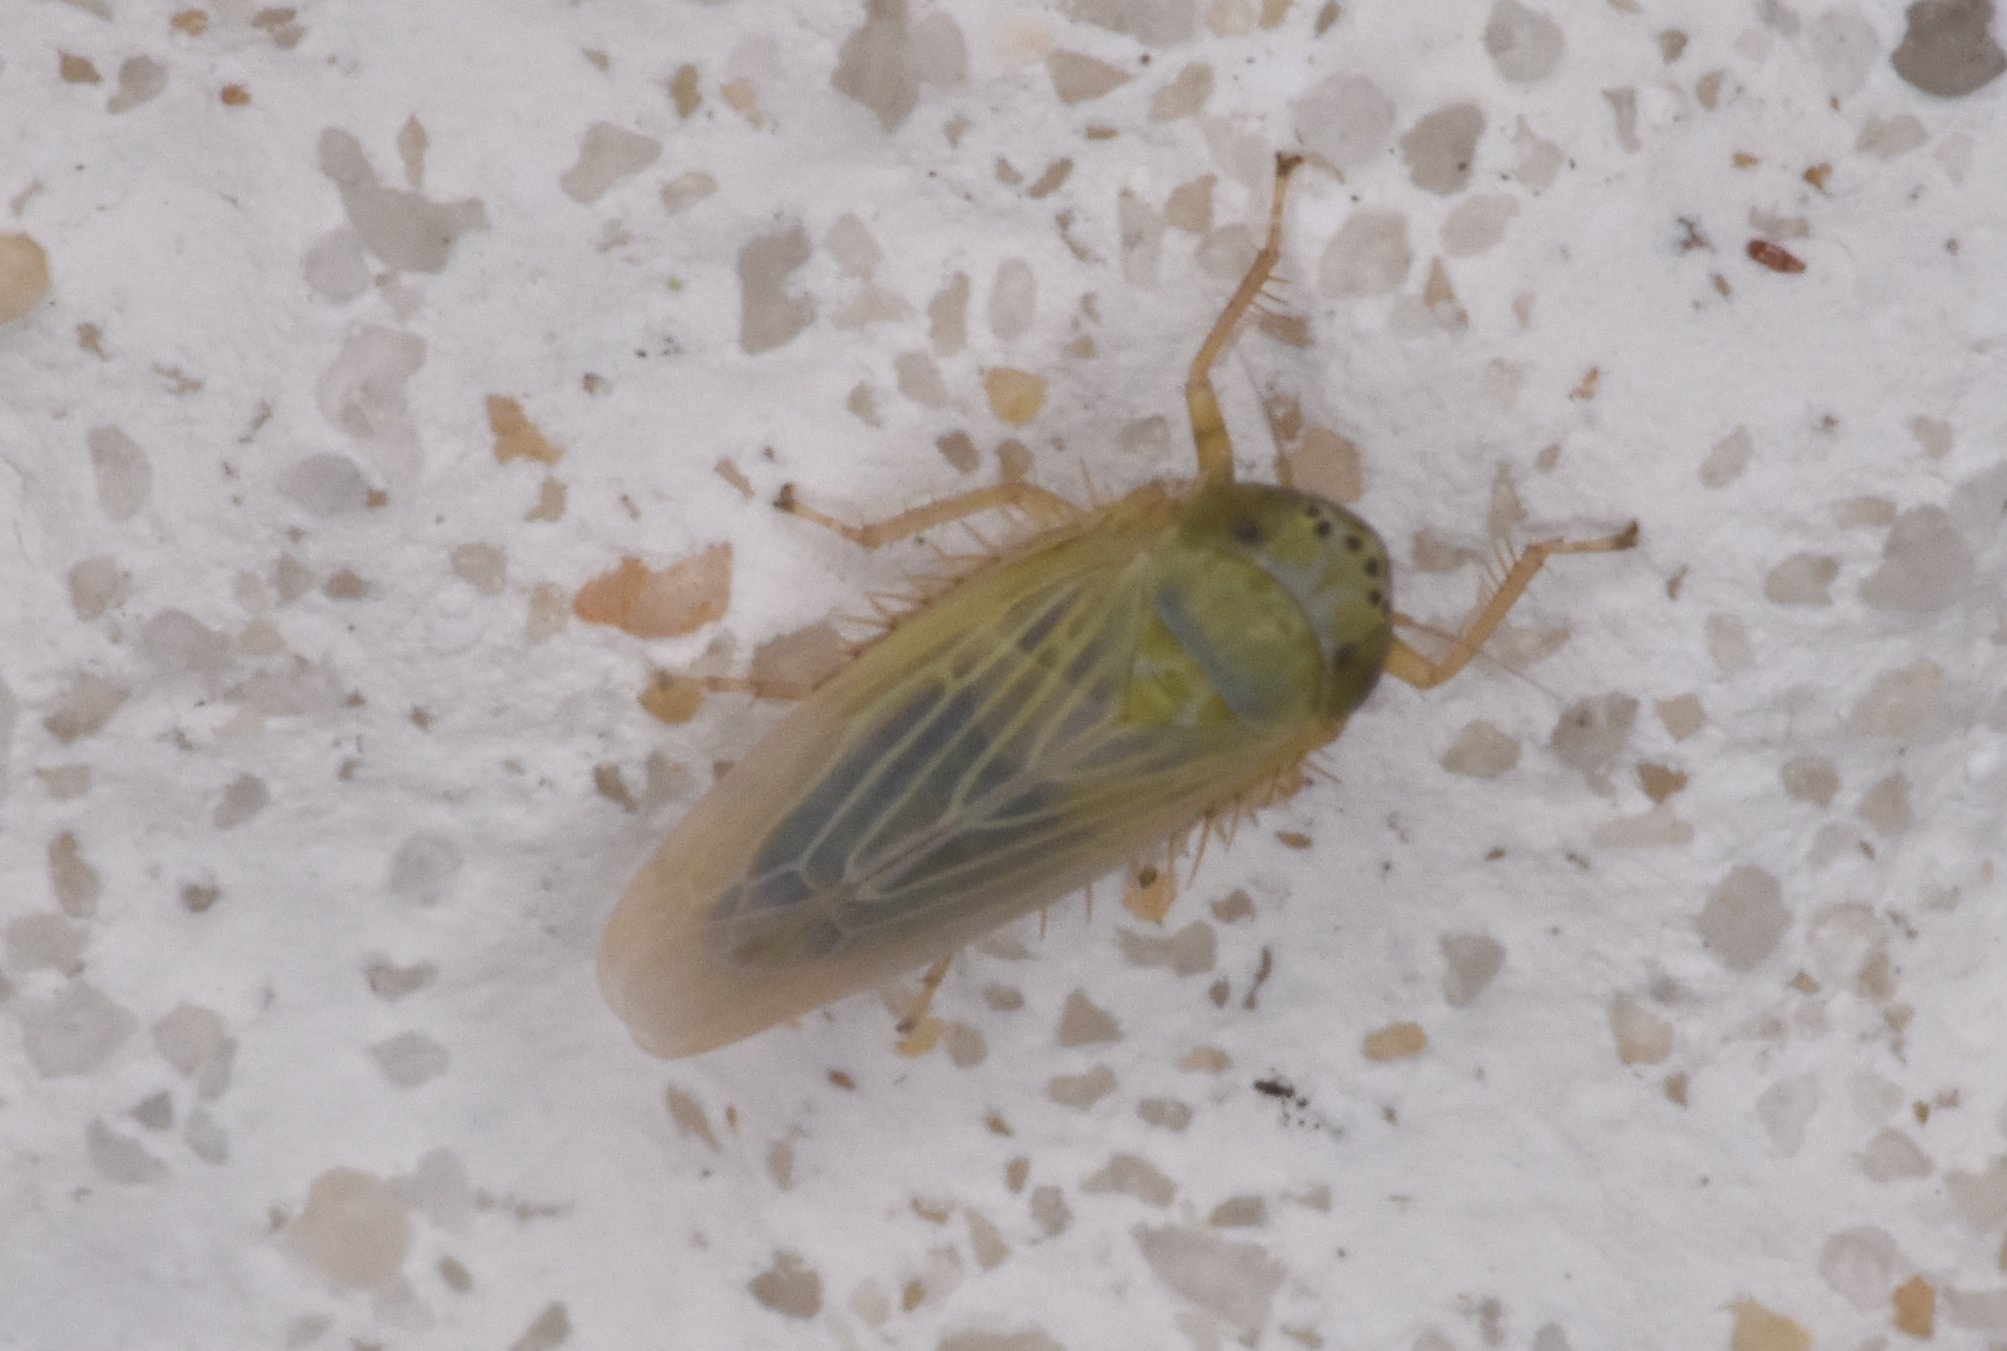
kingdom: Animalia
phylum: Arthropoda
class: Insecta
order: Hemiptera
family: Cicadellidae
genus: Graminella
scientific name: Graminella nigrifrons
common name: Blackfaced leafhopper
